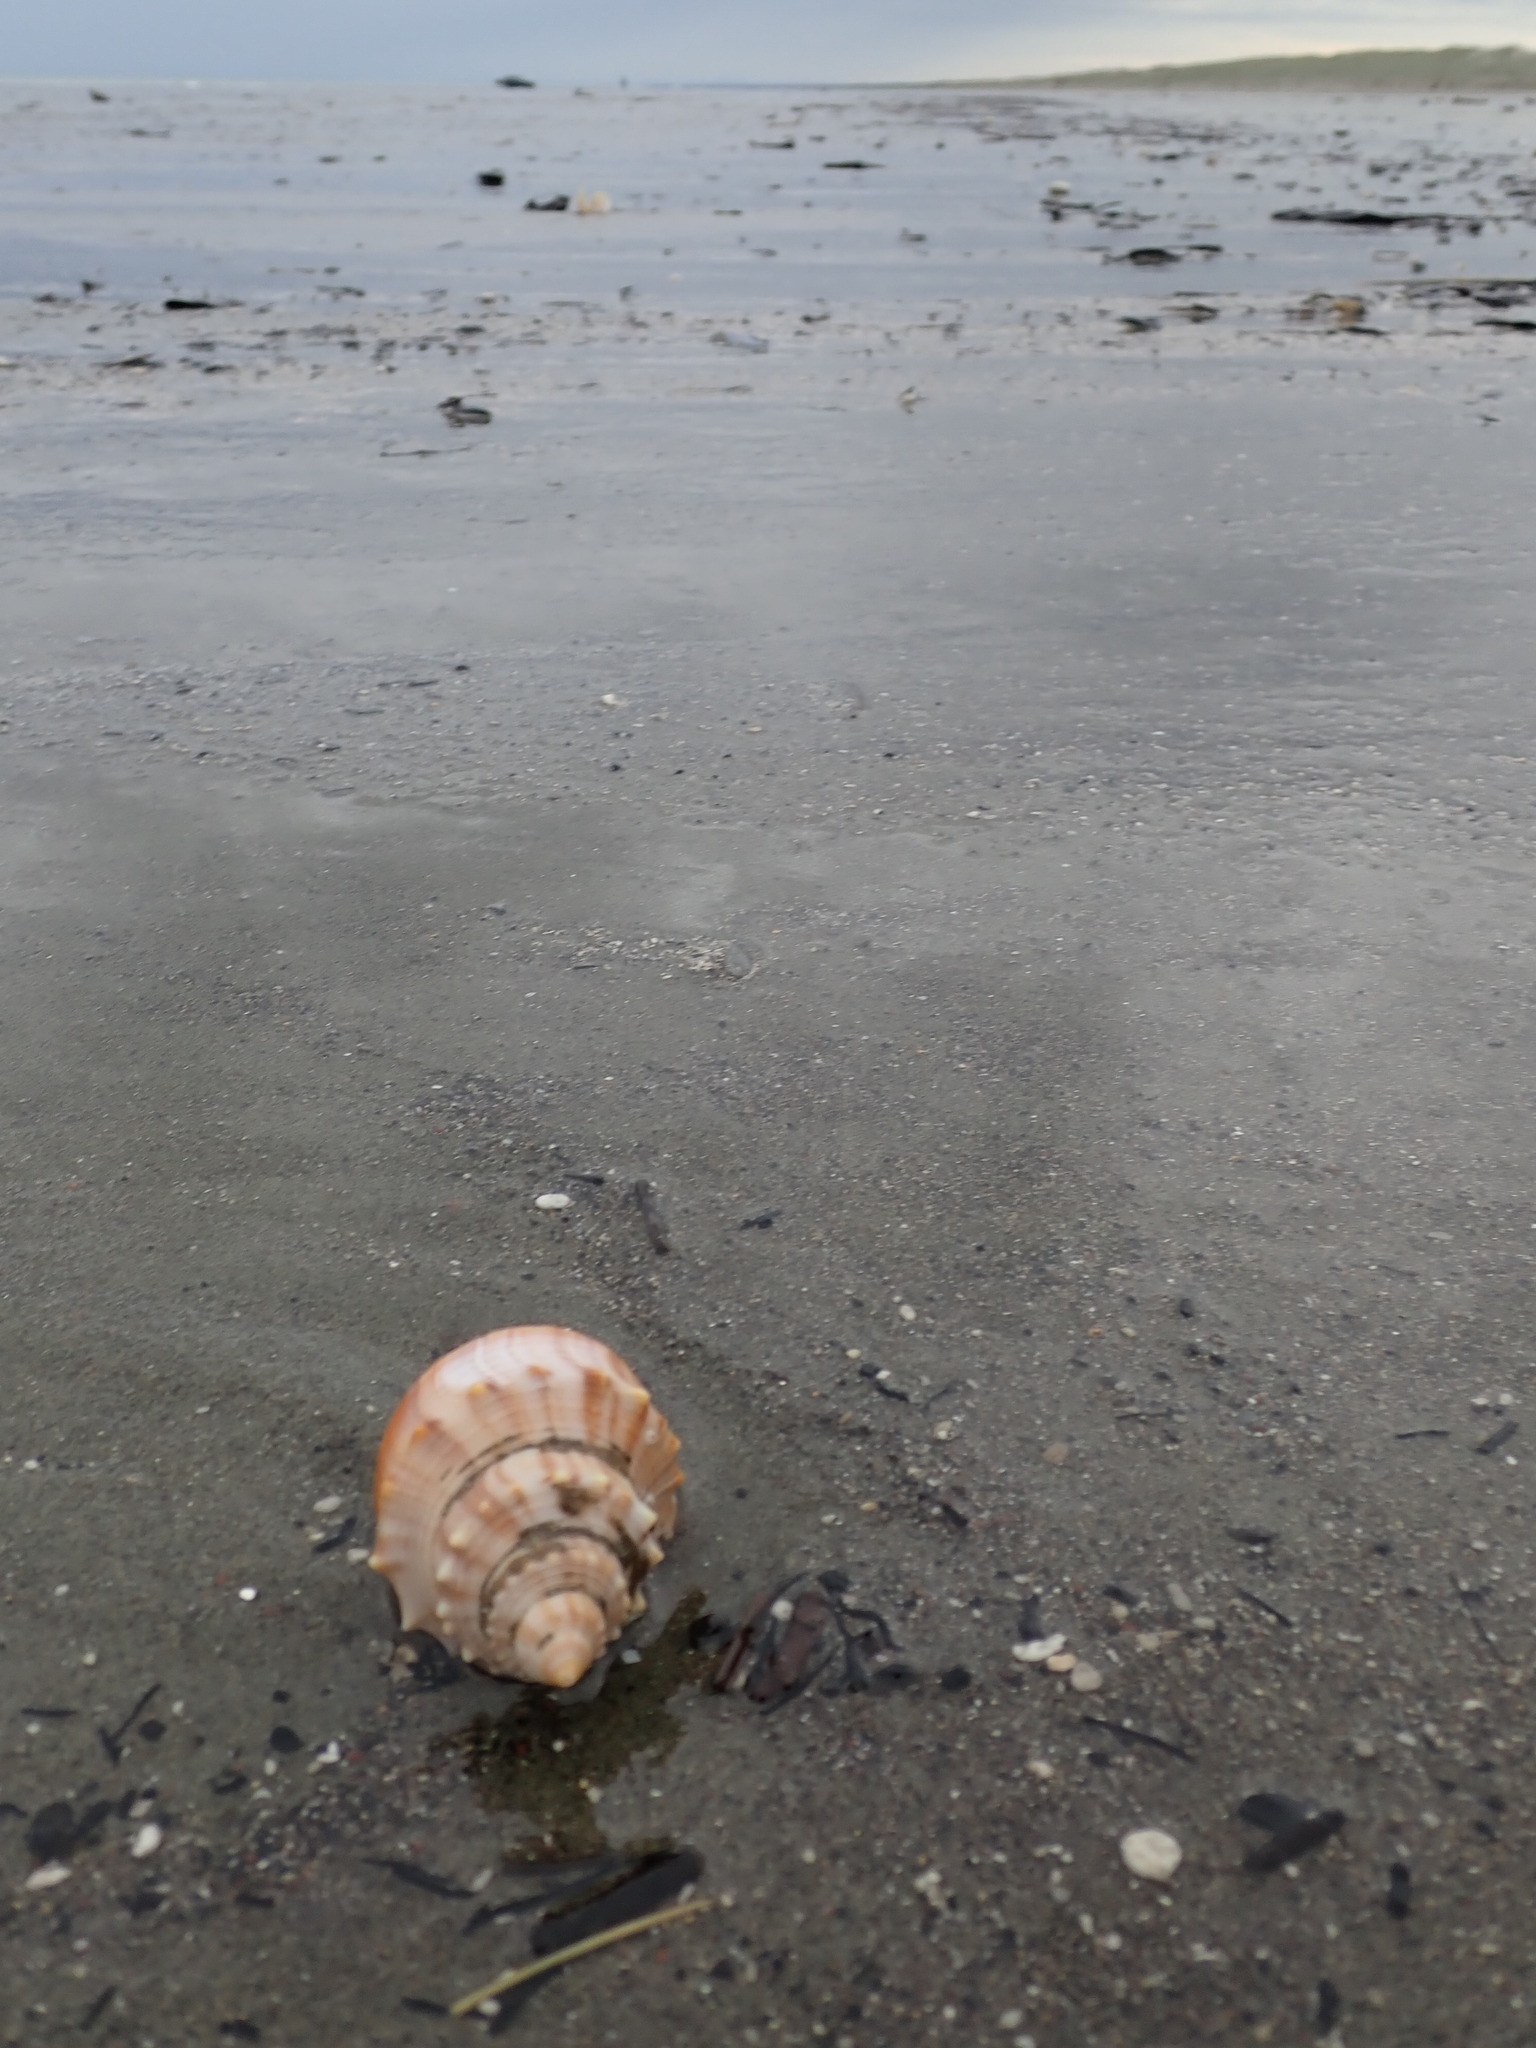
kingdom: Animalia
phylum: Mollusca
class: Gastropoda
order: Littorinimorpha
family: Struthiolariidae
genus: Struthiolaria
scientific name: Struthiolaria papulosa
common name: Large ostrich foot
